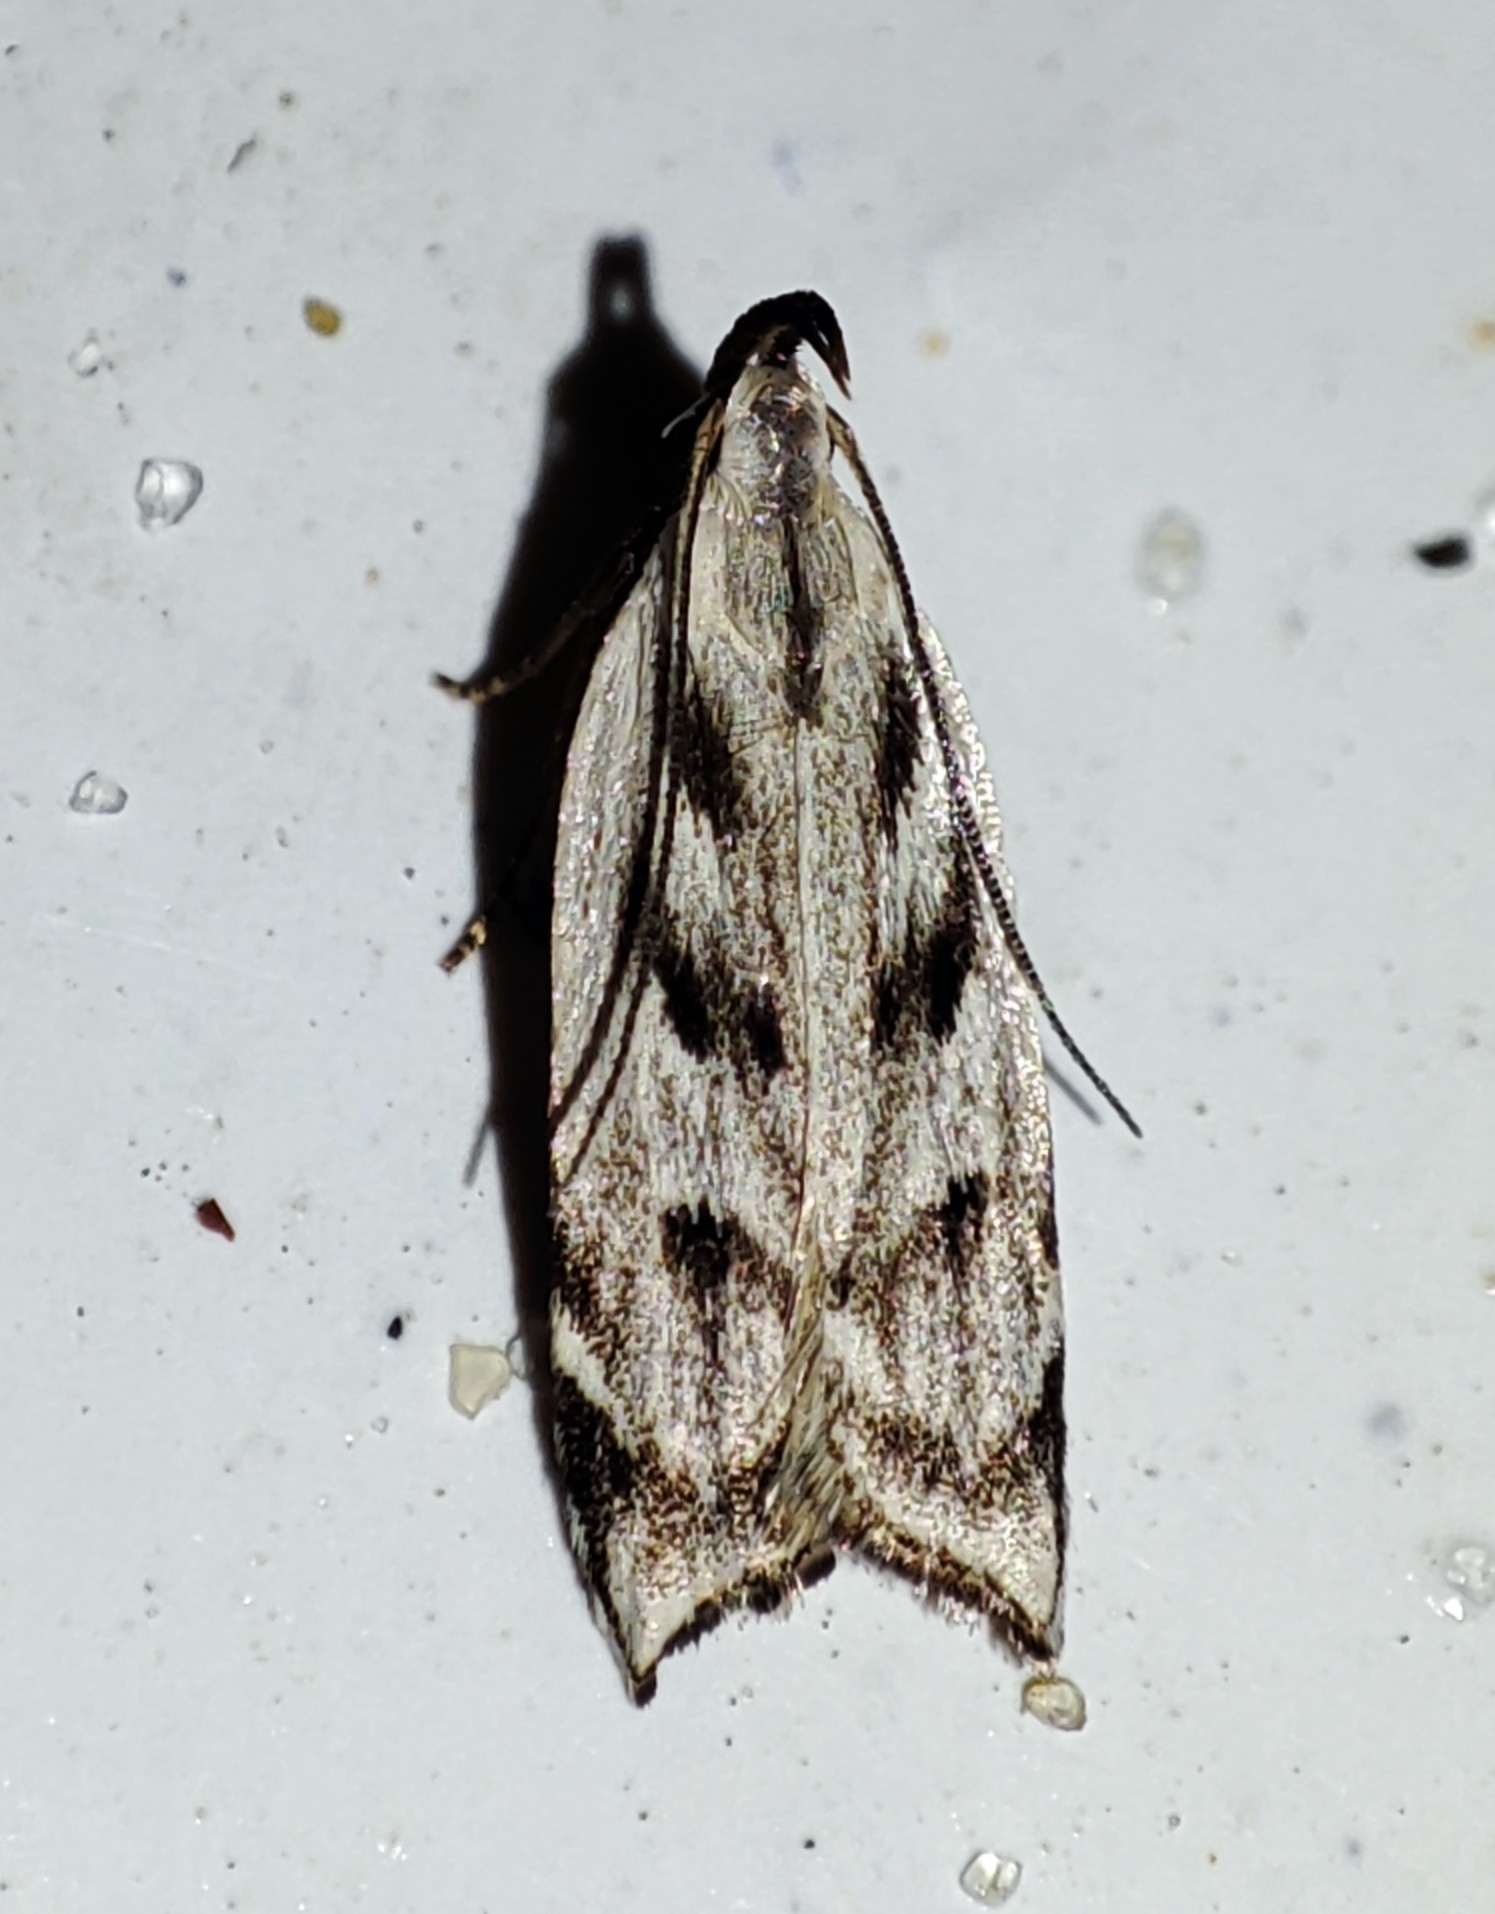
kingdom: Animalia
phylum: Arthropoda
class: Insecta
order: Lepidoptera
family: Gelechiidae
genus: Dichomeris
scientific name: Dichomeris rasilella
